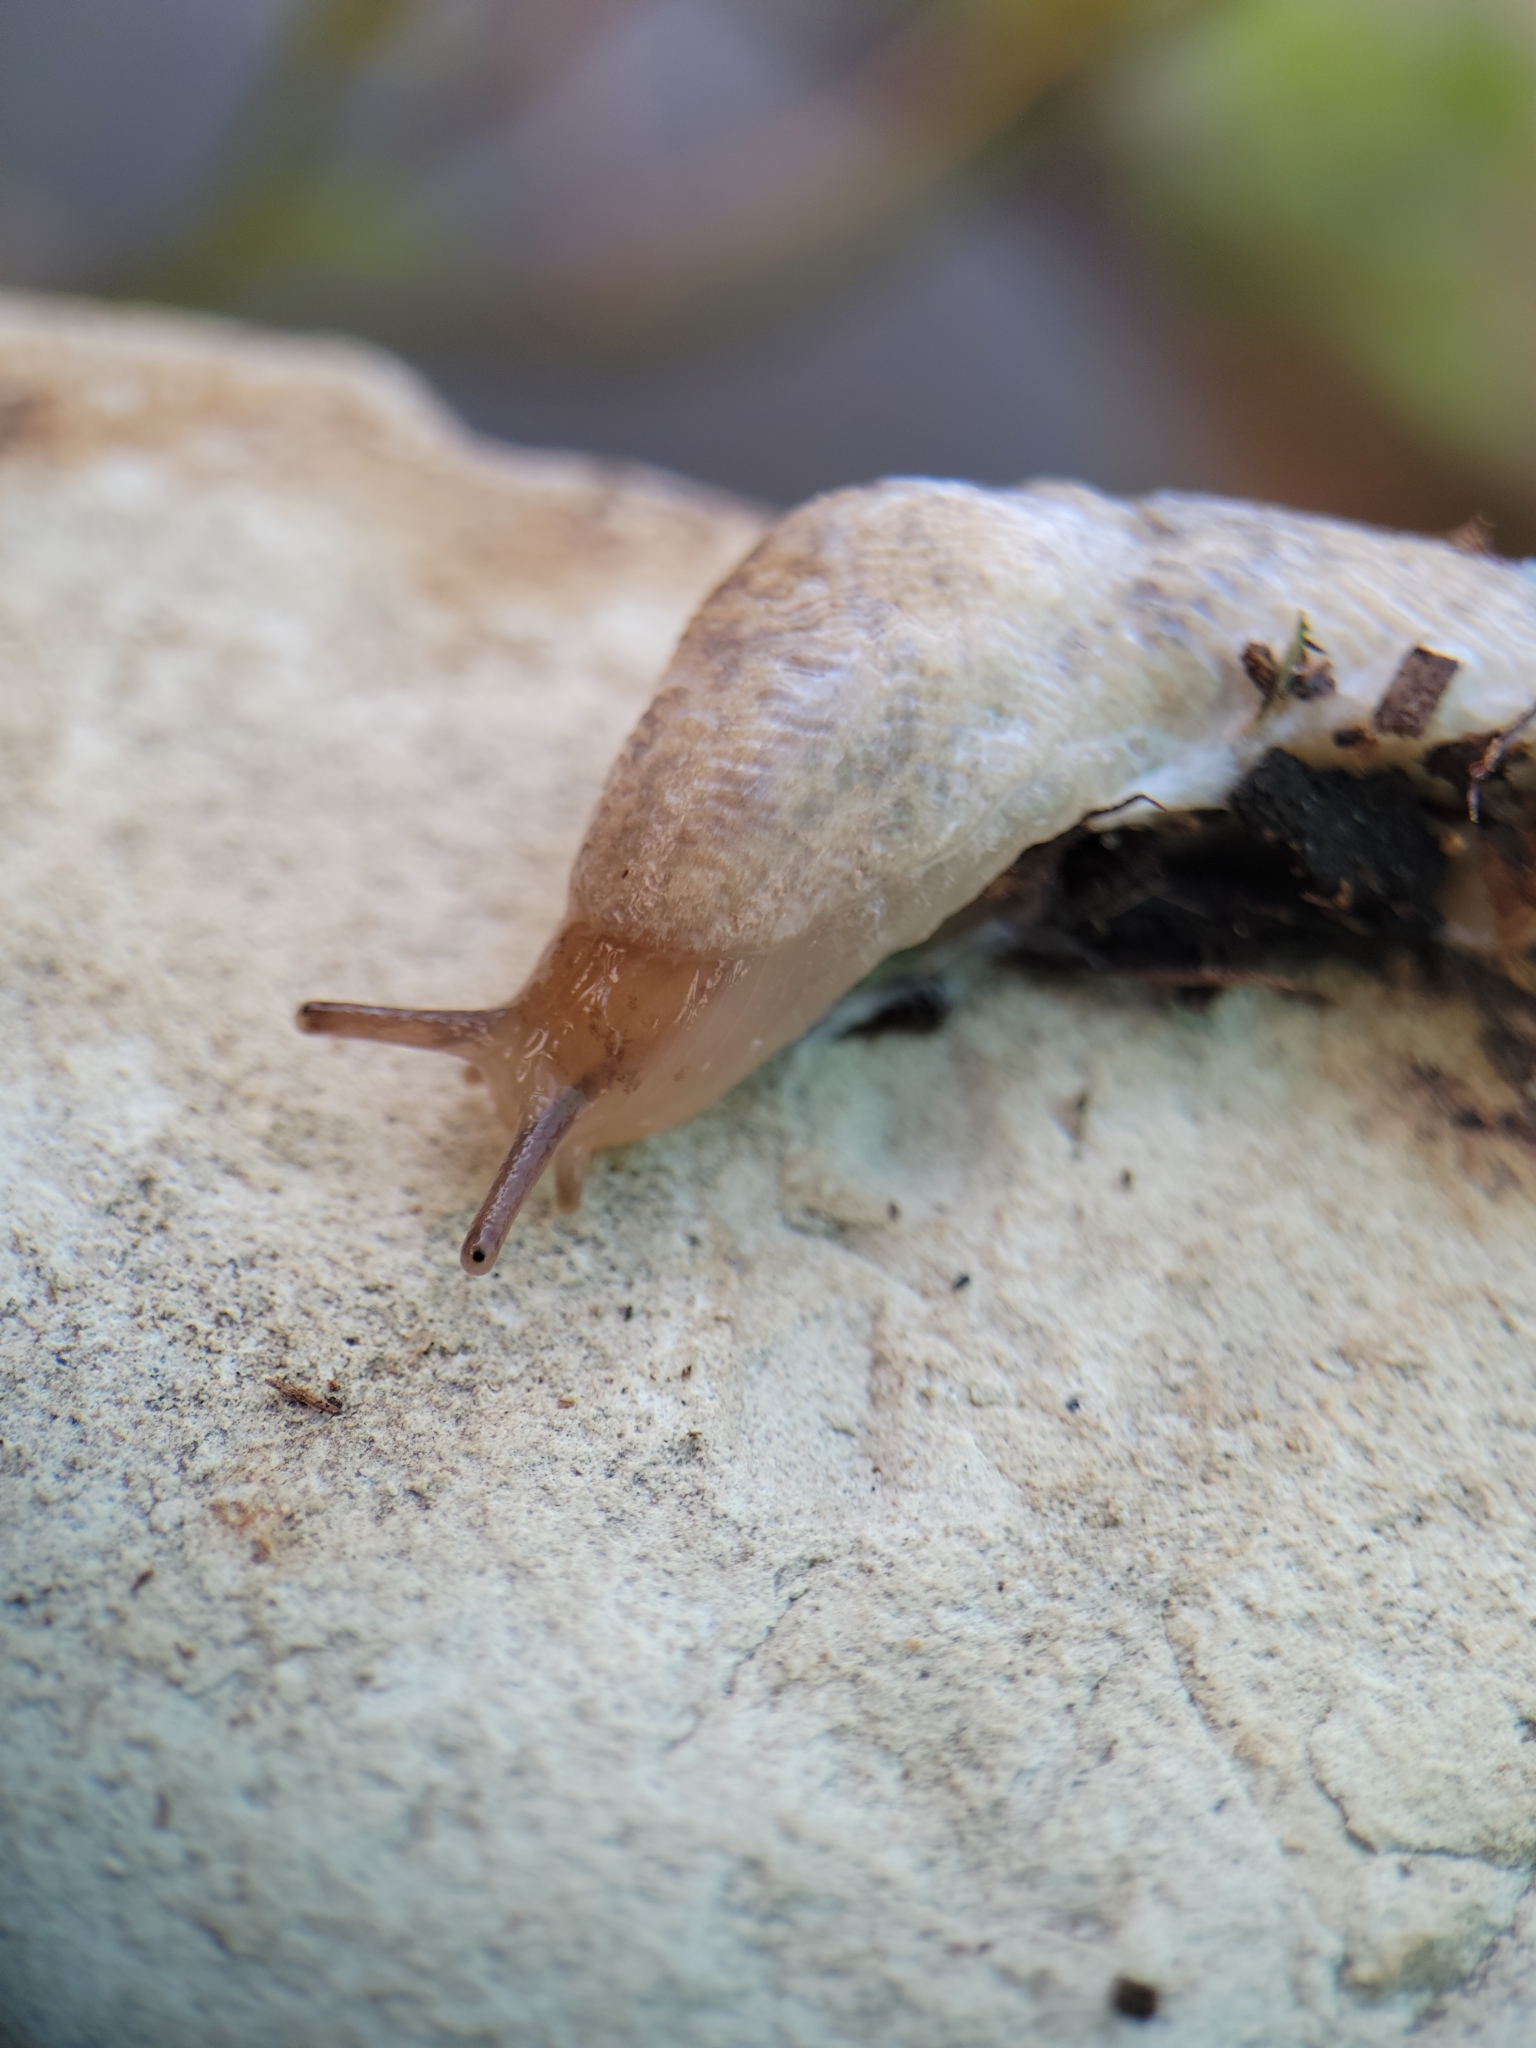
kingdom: Animalia
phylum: Mollusca
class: Gastropoda
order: Stylommatophora
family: Agriolimacidae
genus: Deroceras
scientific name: Deroceras reticulatum
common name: Gray field slug
